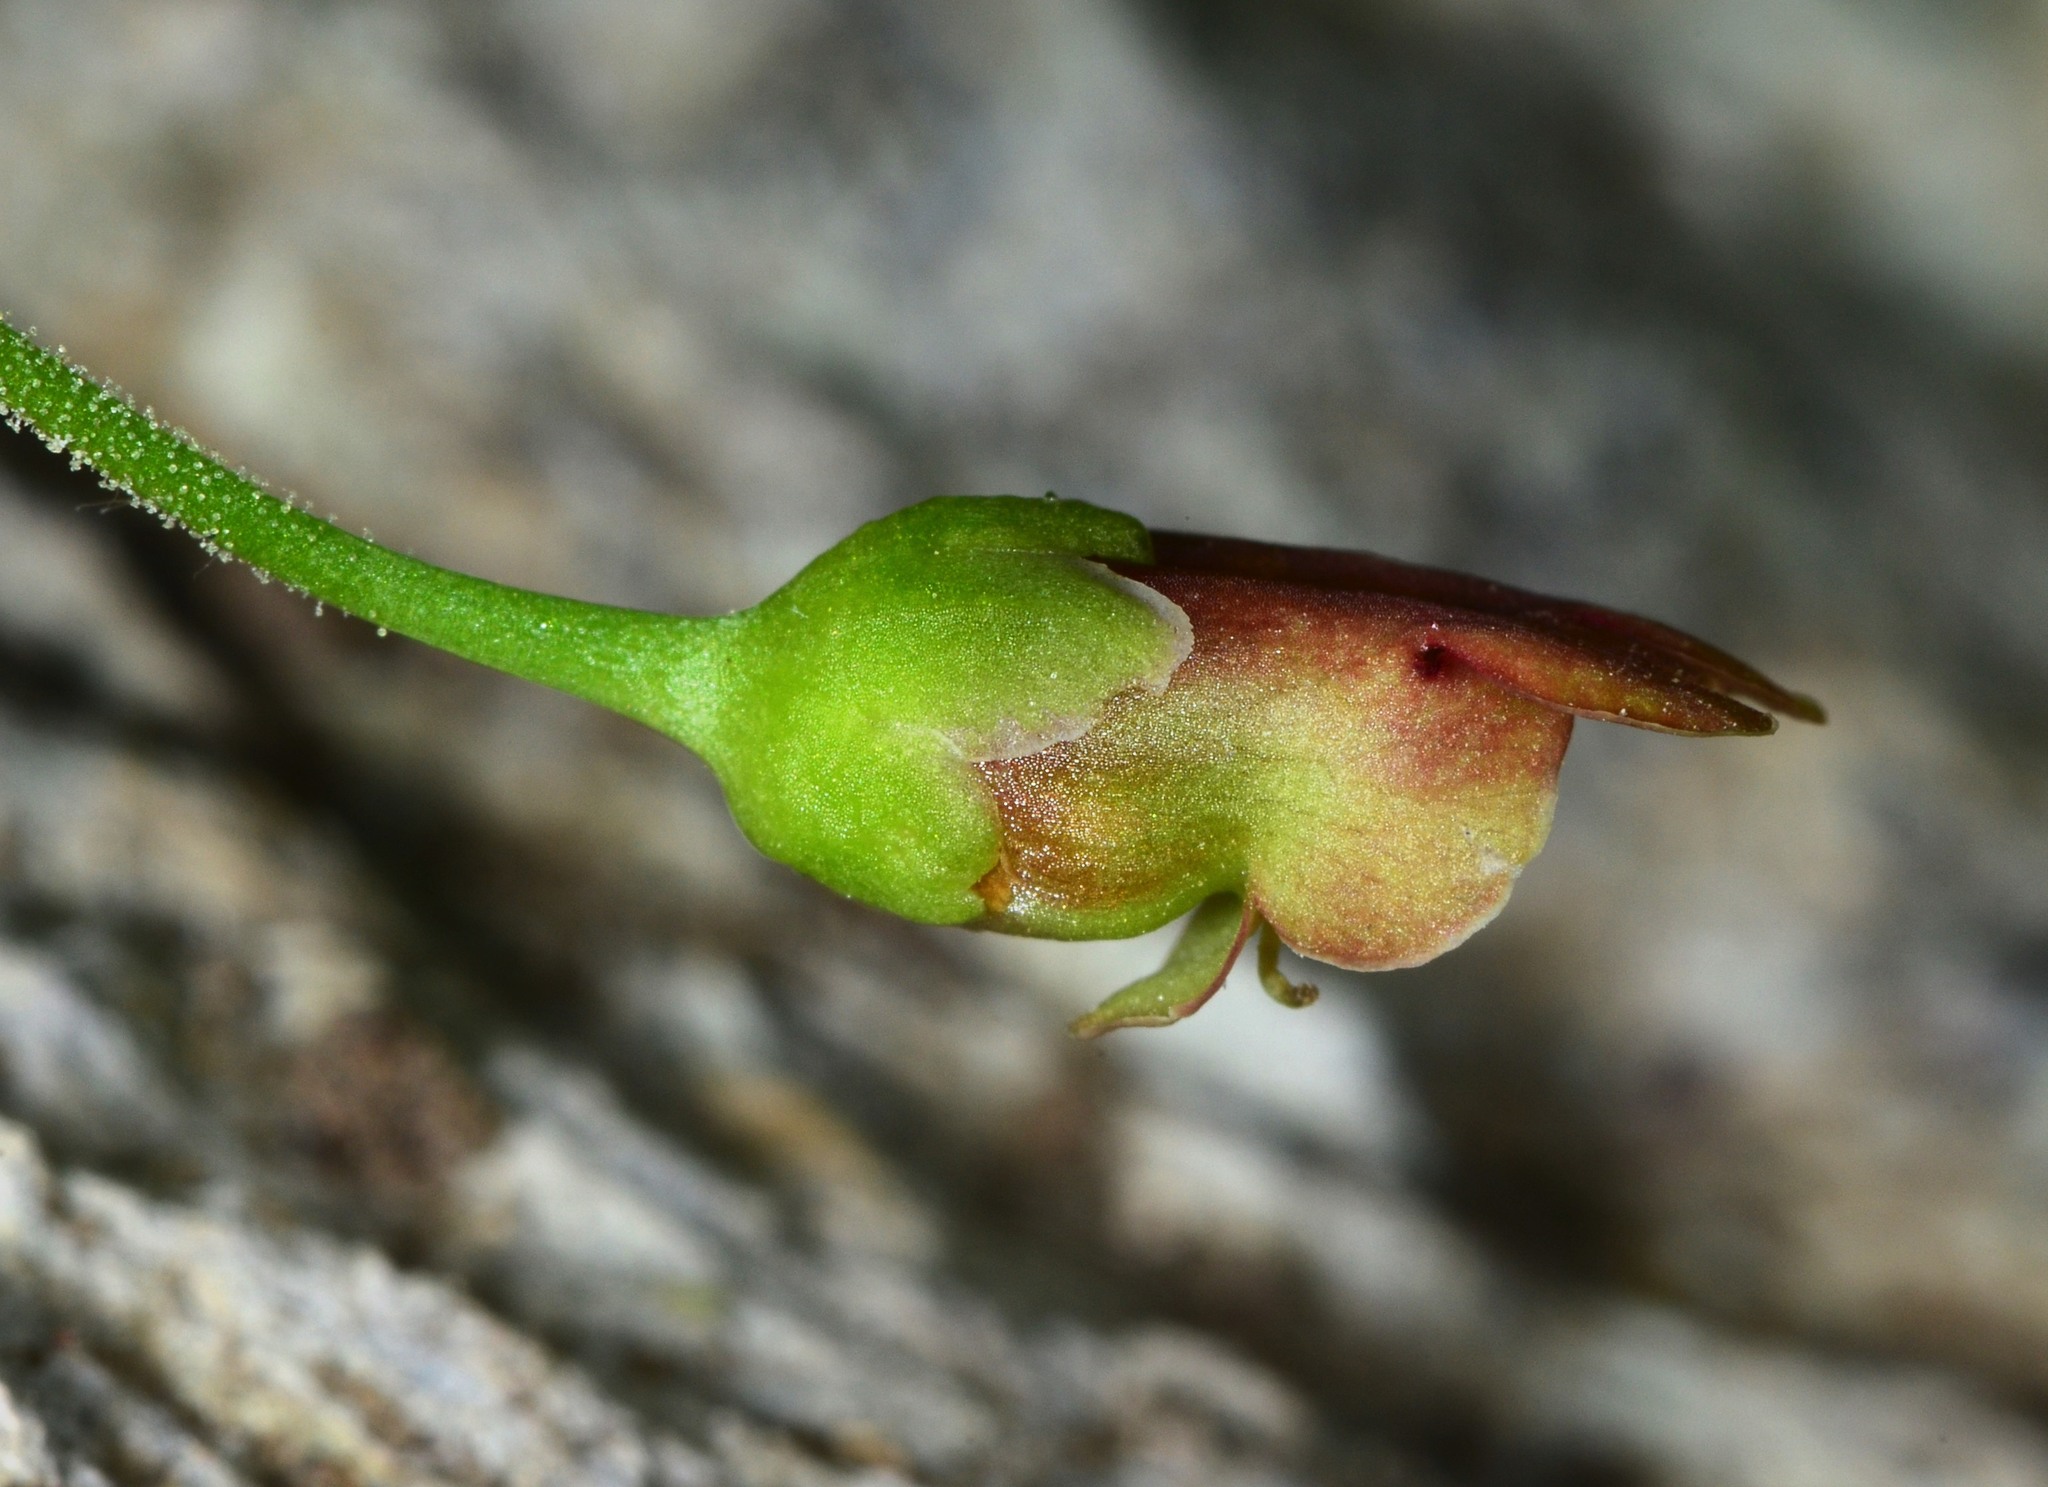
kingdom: Plantae
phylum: Tracheophyta
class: Magnoliopsida
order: Lamiales
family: Scrophulariaceae
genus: Scrophularia
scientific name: Scrophularia californica
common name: California figwort
